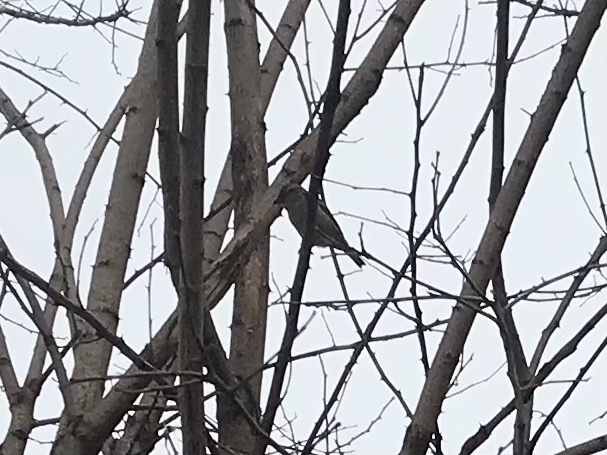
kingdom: Animalia
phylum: Chordata
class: Aves
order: Passeriformes
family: Passeridae
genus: Passer
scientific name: Passer domesticus
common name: House sparrow
